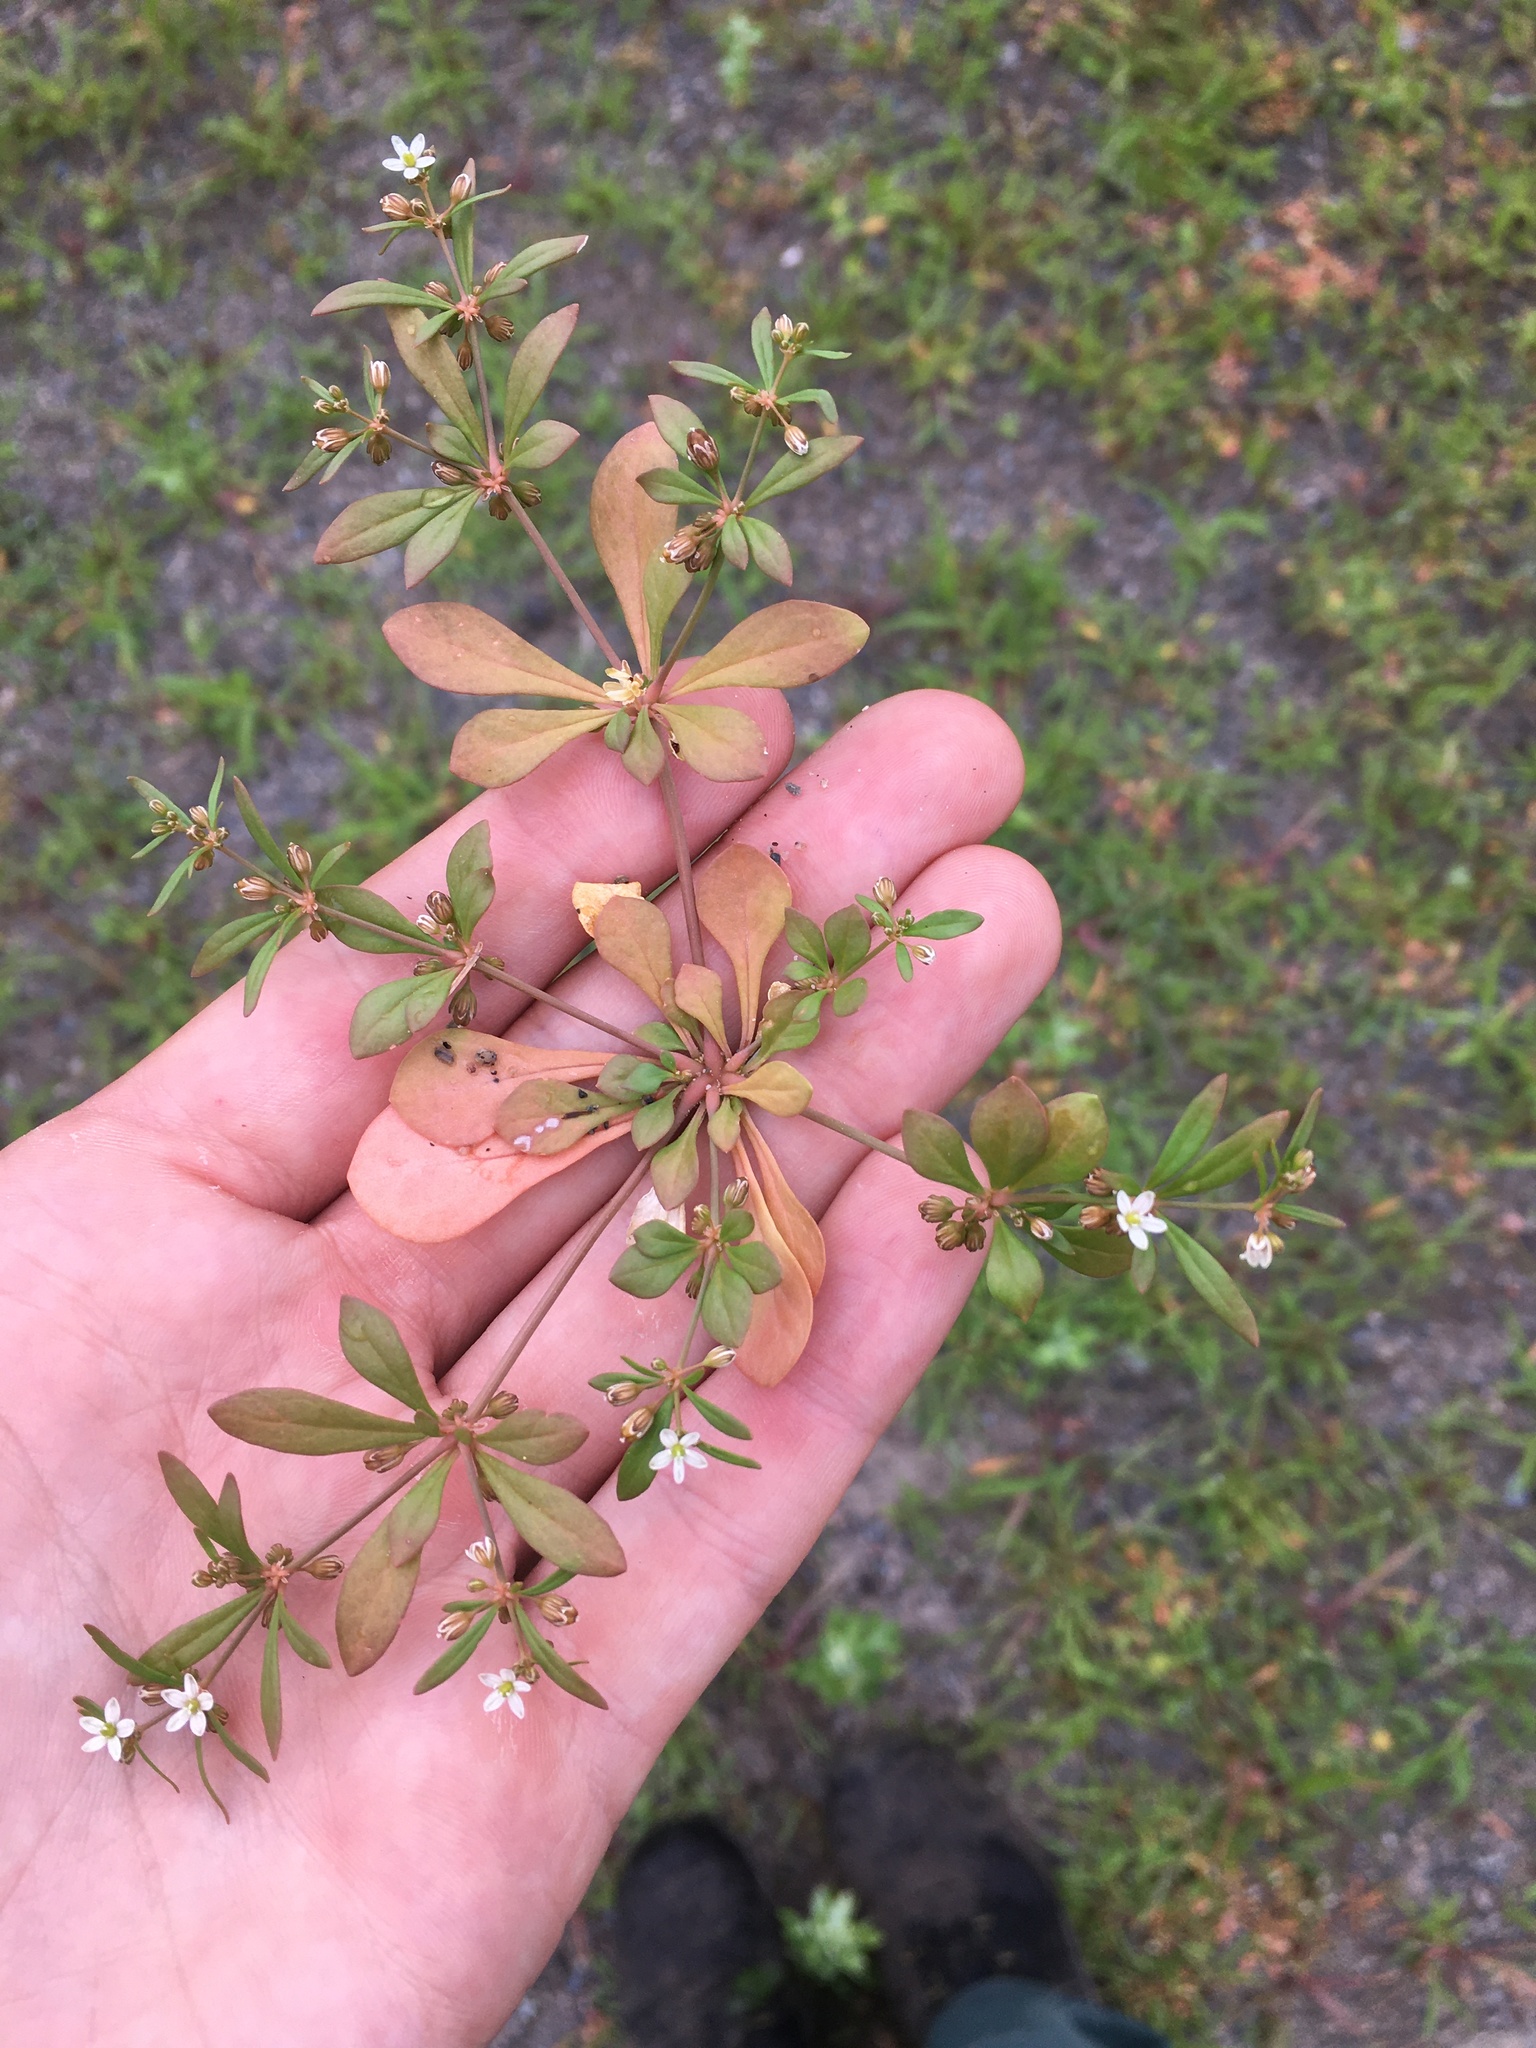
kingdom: Plantae
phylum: Tracheophyta
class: Magnoliopsida
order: Caryophyllales
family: Molluginaceae
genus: Mollugo
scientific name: Mollugo verticillata
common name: Green carpetweed
